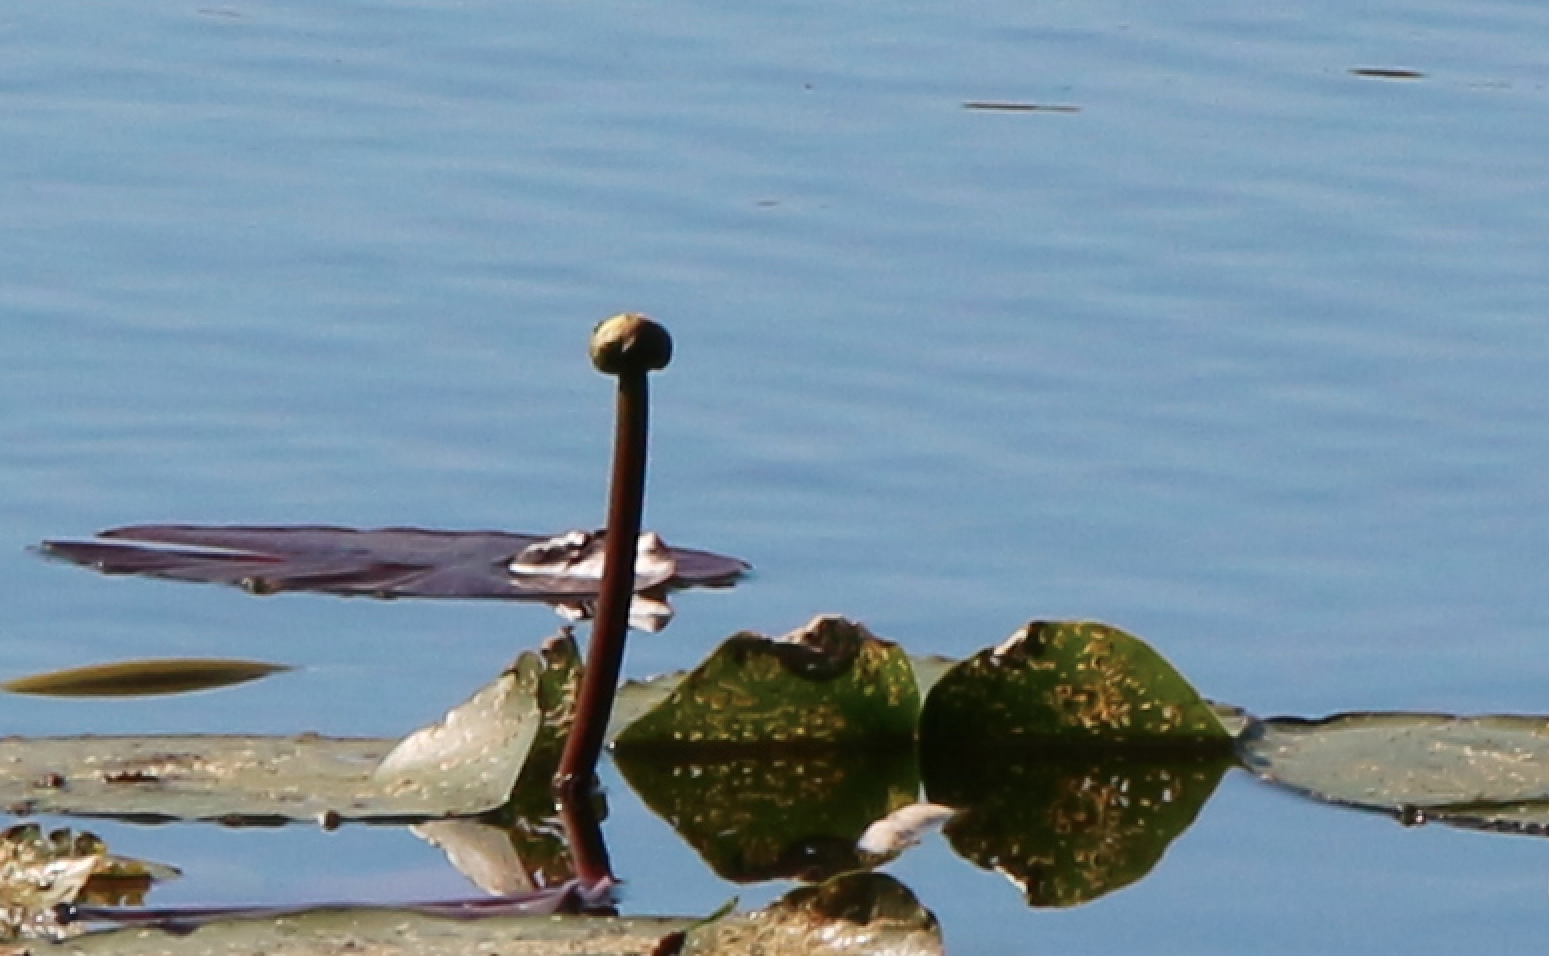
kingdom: Plantae
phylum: Tracheophyta
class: Magnoliopsida
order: Nymphaeales
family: Nymphaeaceae
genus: Nuphar
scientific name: Nuphar advena
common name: Spatter-dock
